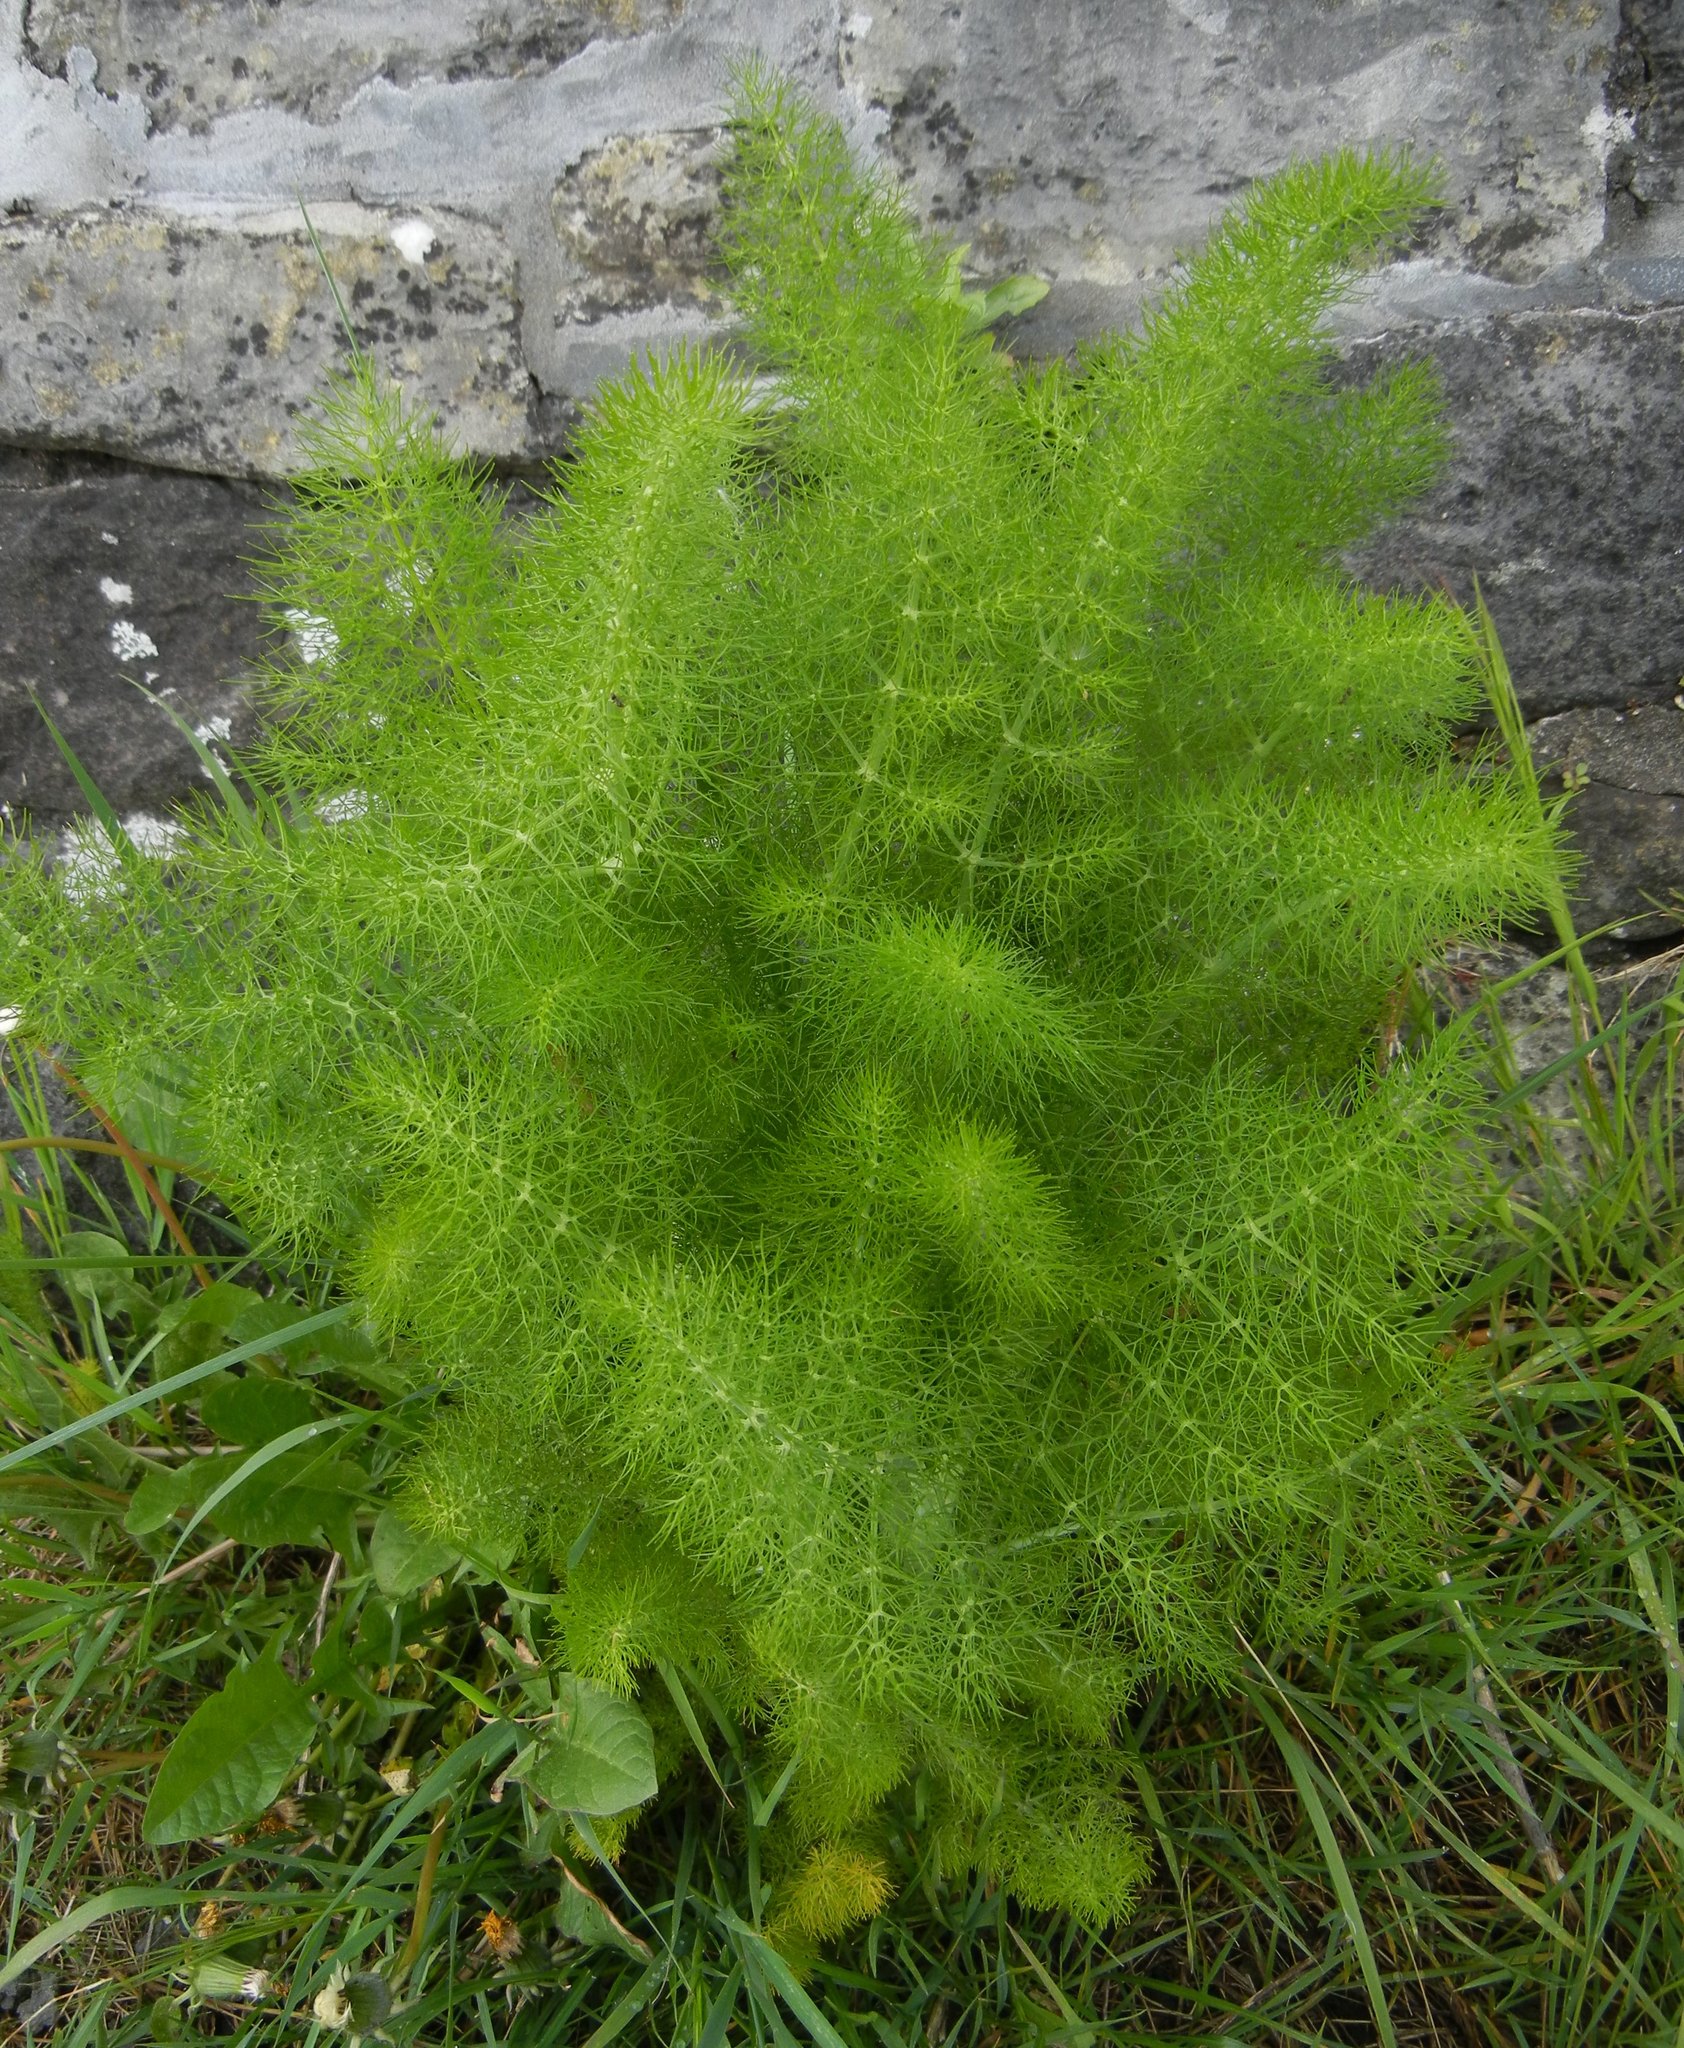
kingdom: Plantae
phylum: Tracheophyta
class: Magnoliopsida
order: Apiales
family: Apiaceae
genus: Foeniculum
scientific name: Foeniculum vulgare
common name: Fennel
